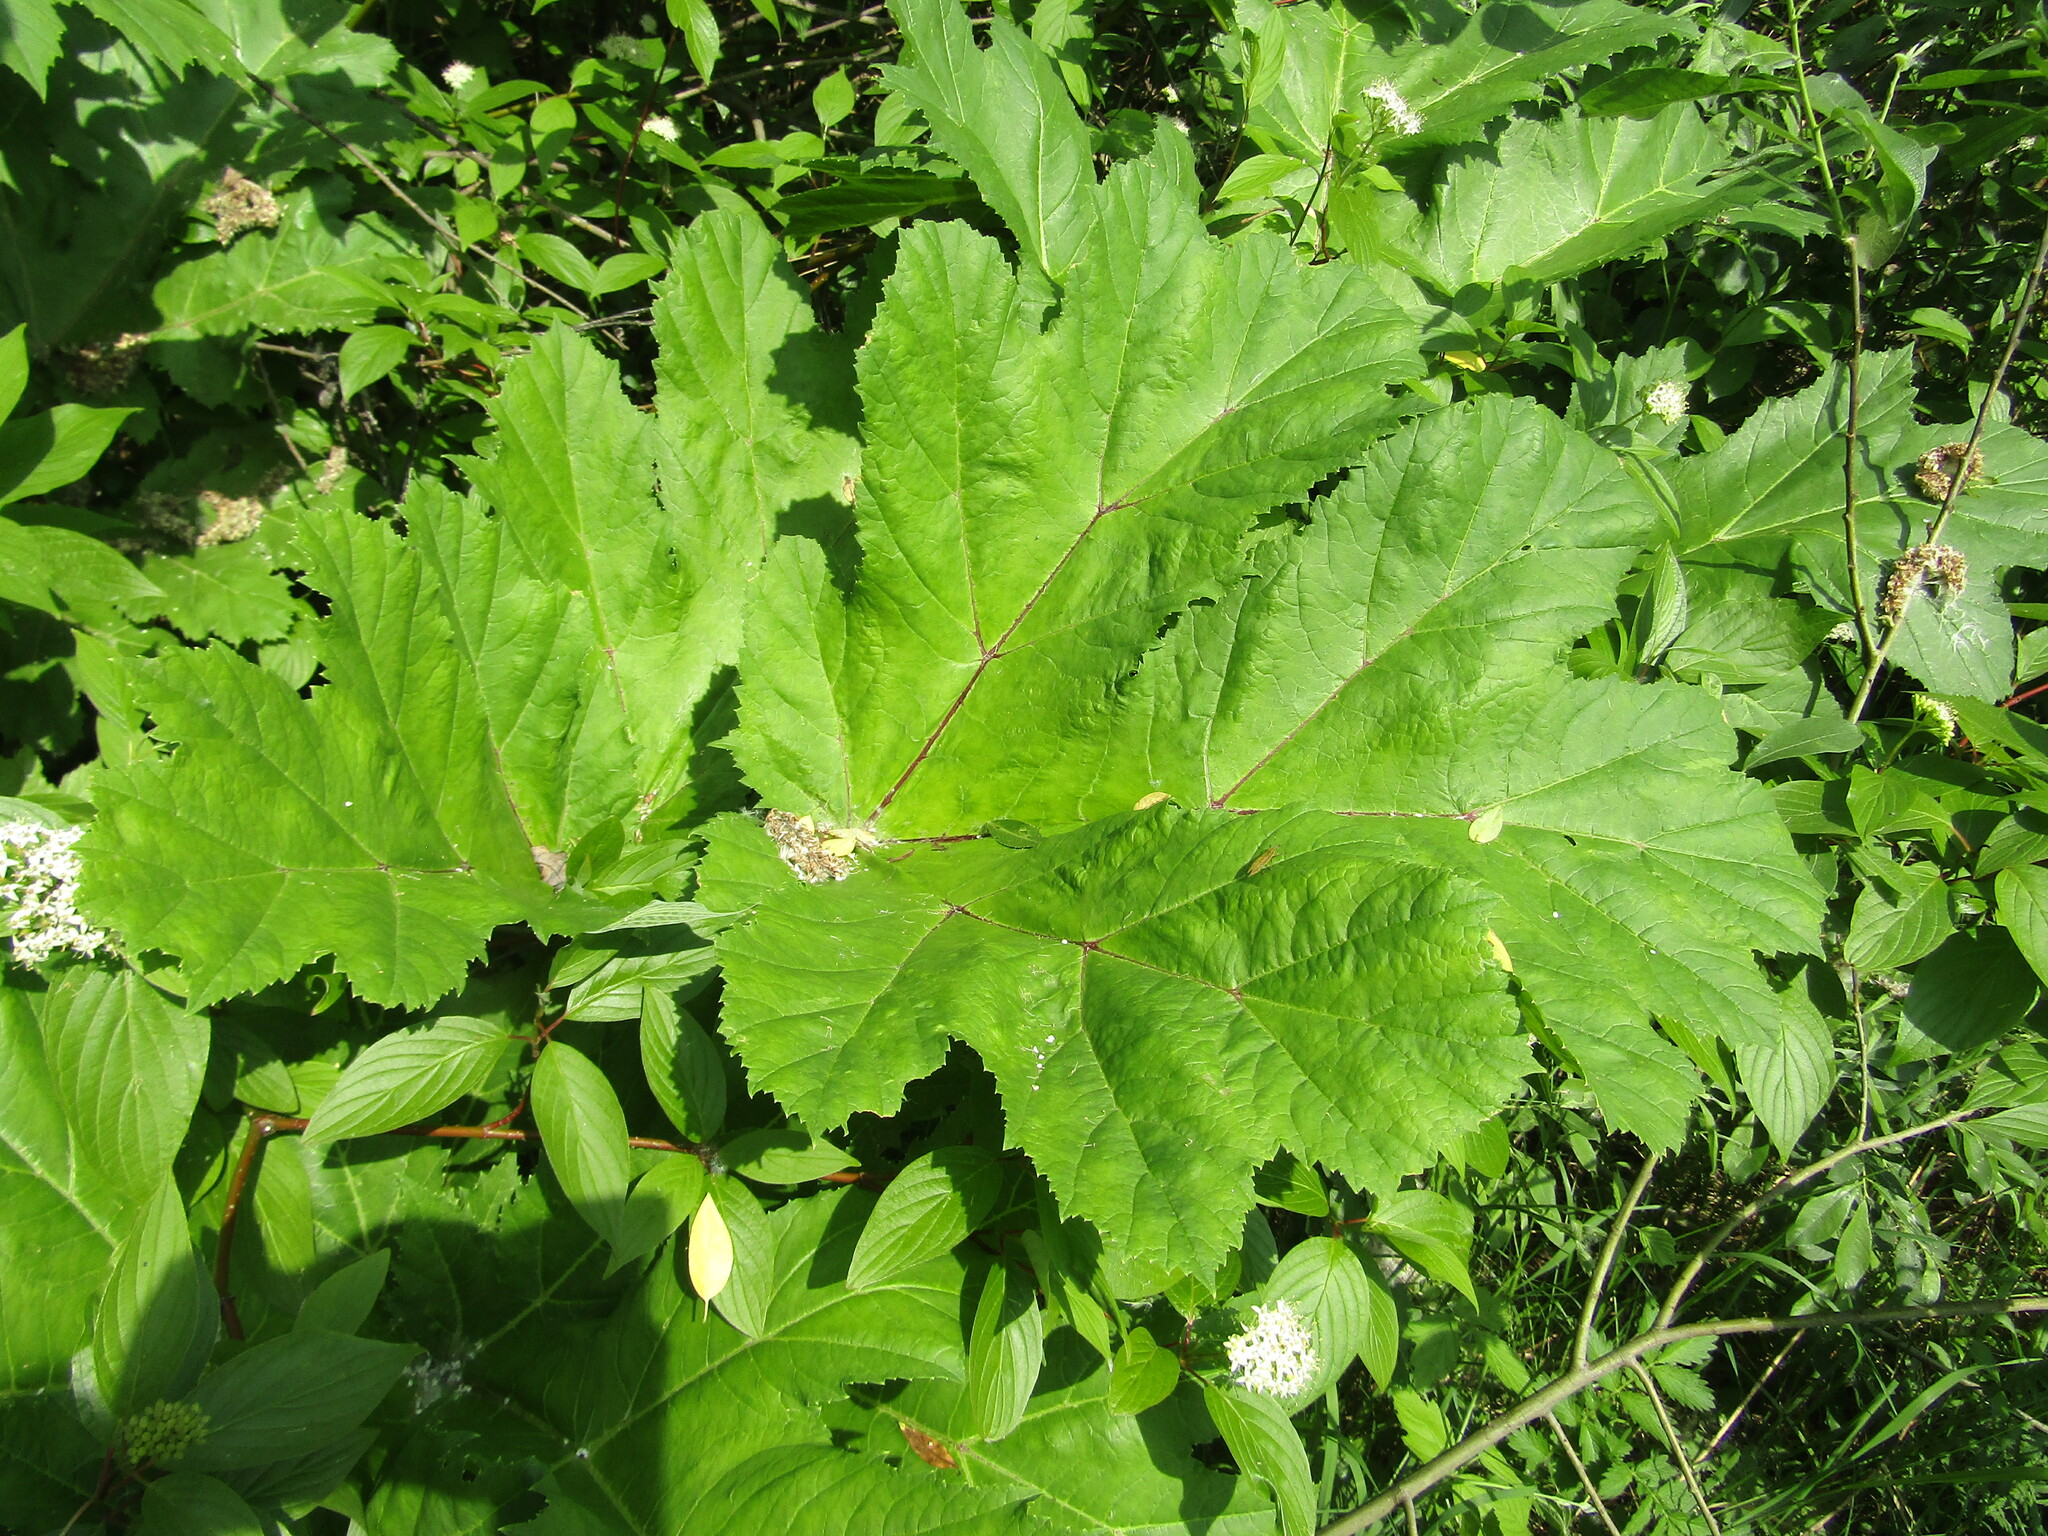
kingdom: Plantae
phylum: Tracheophyta
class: Magnoliopsida
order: Apiales
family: Apiaceae
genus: Heracleum
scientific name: Heracleum sosnowskyi
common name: Sosnowsky's hogweed
